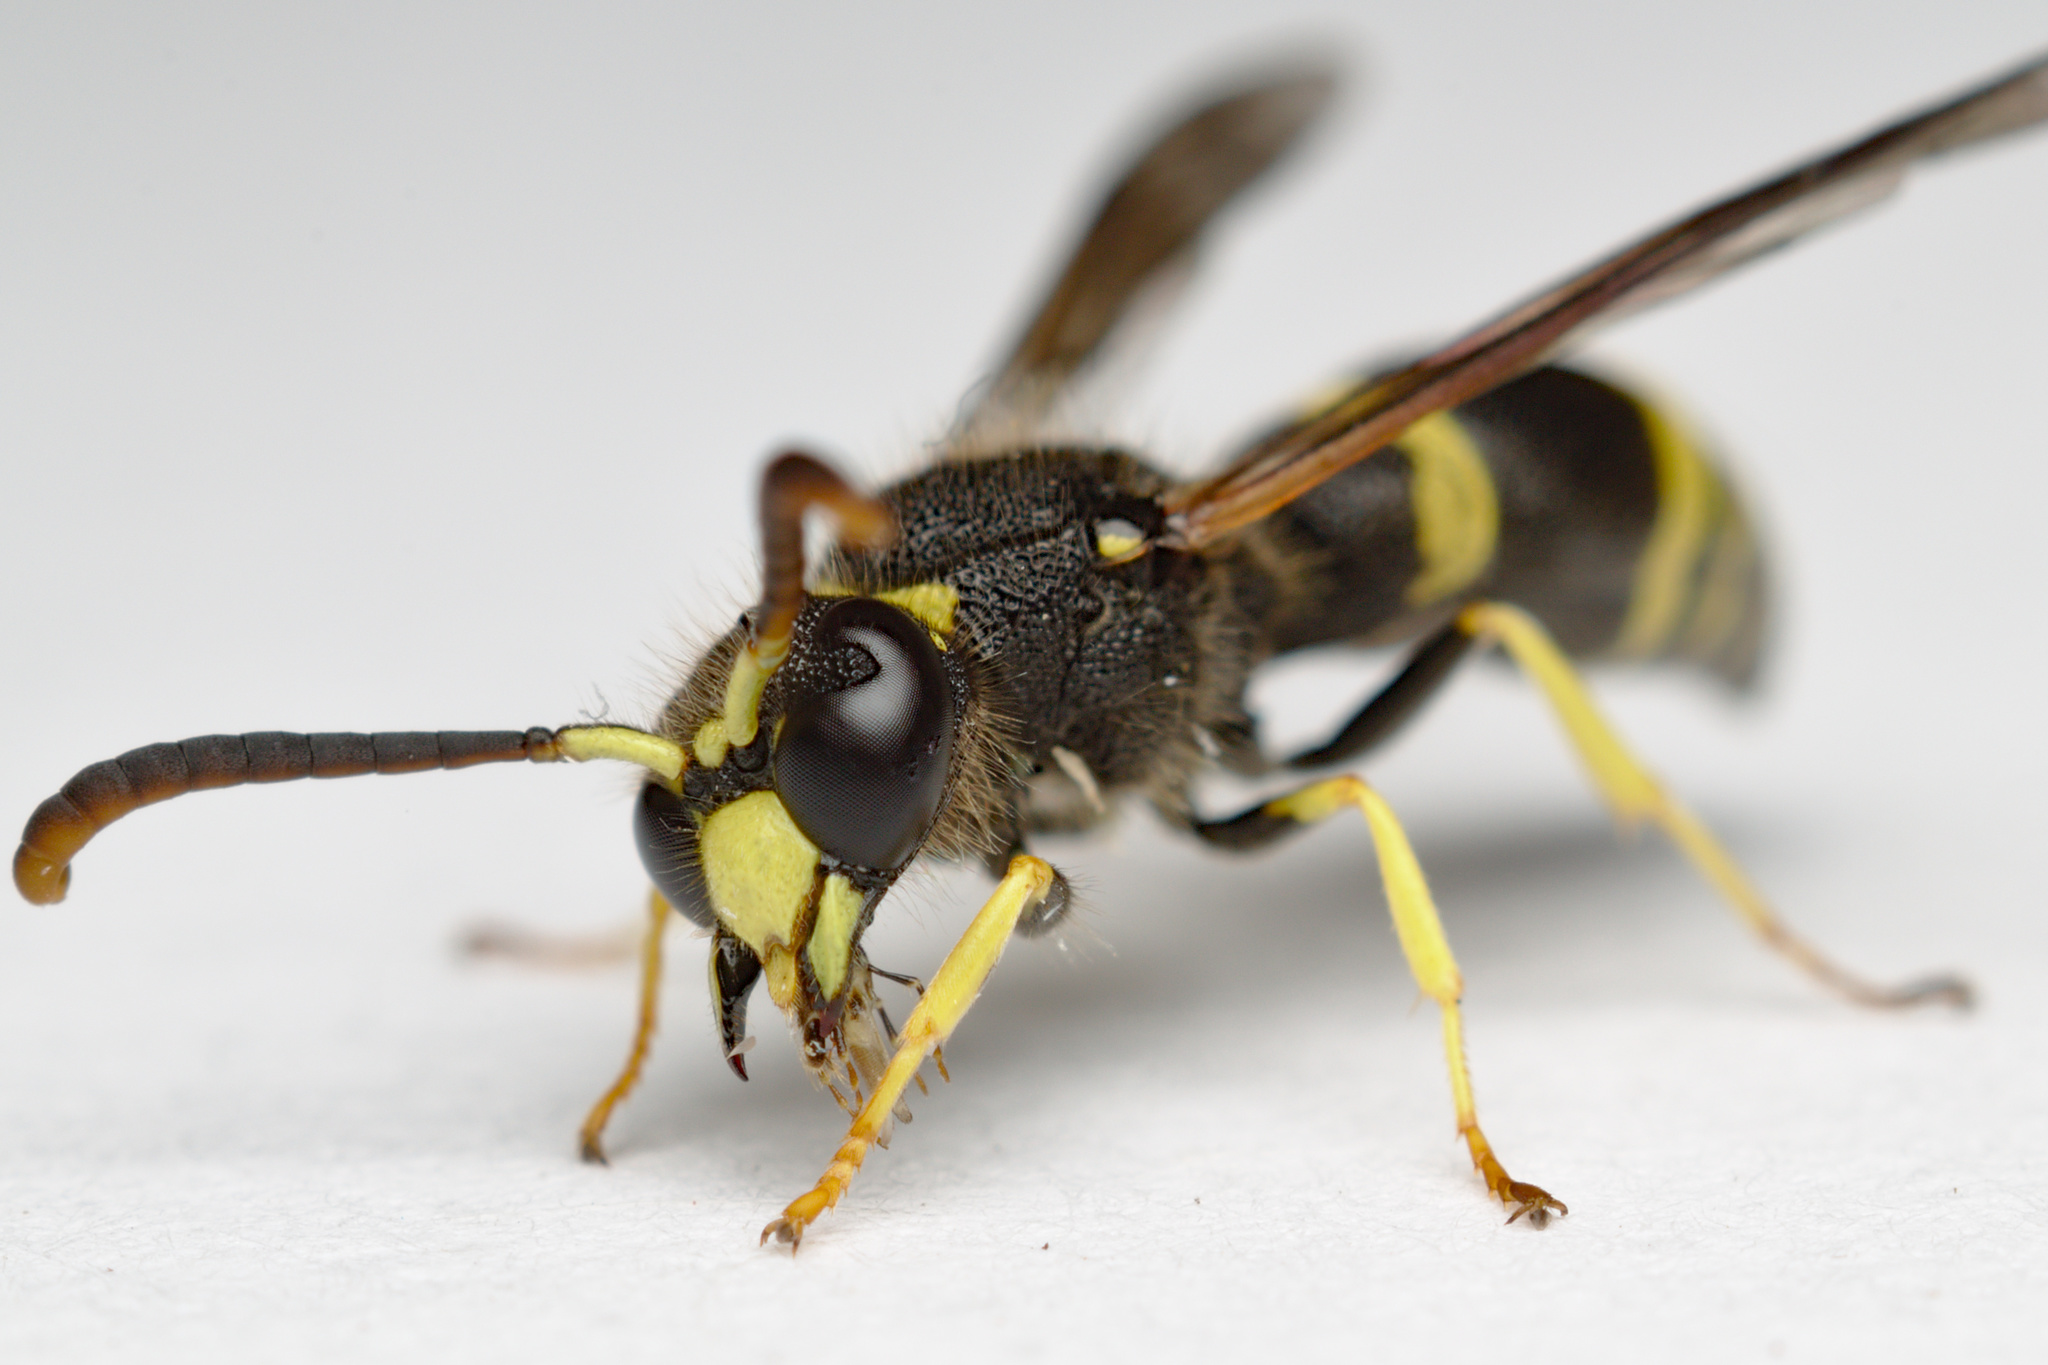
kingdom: Animalia
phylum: Arthropoda
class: Insecta
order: Hymenoptera
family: Vespidae
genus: Ancistrocerus
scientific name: Ancistrocerus gazella
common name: European tube wasp
